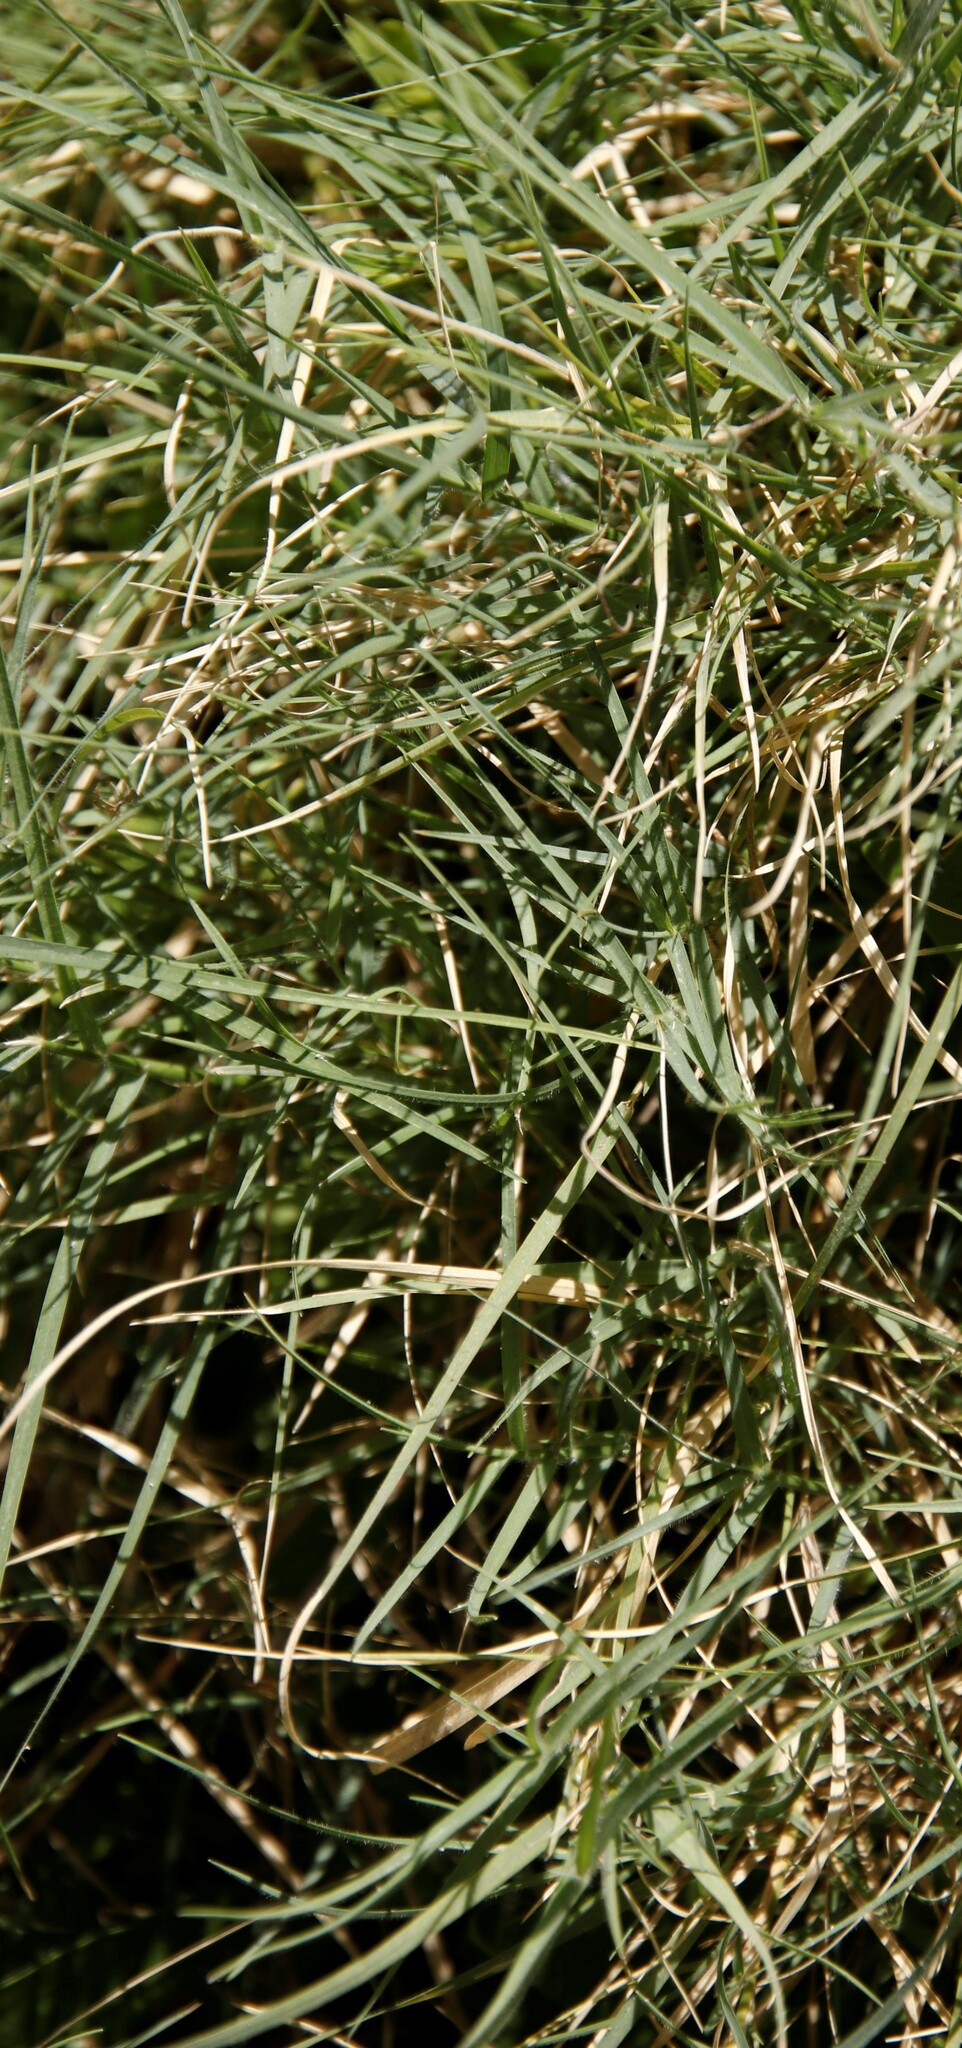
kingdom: Plantae
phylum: Tracheophyta
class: Liliopsida
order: Poales
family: Poaceae
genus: Cynodon
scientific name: Cynodon dactylon
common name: Bermuda grass
